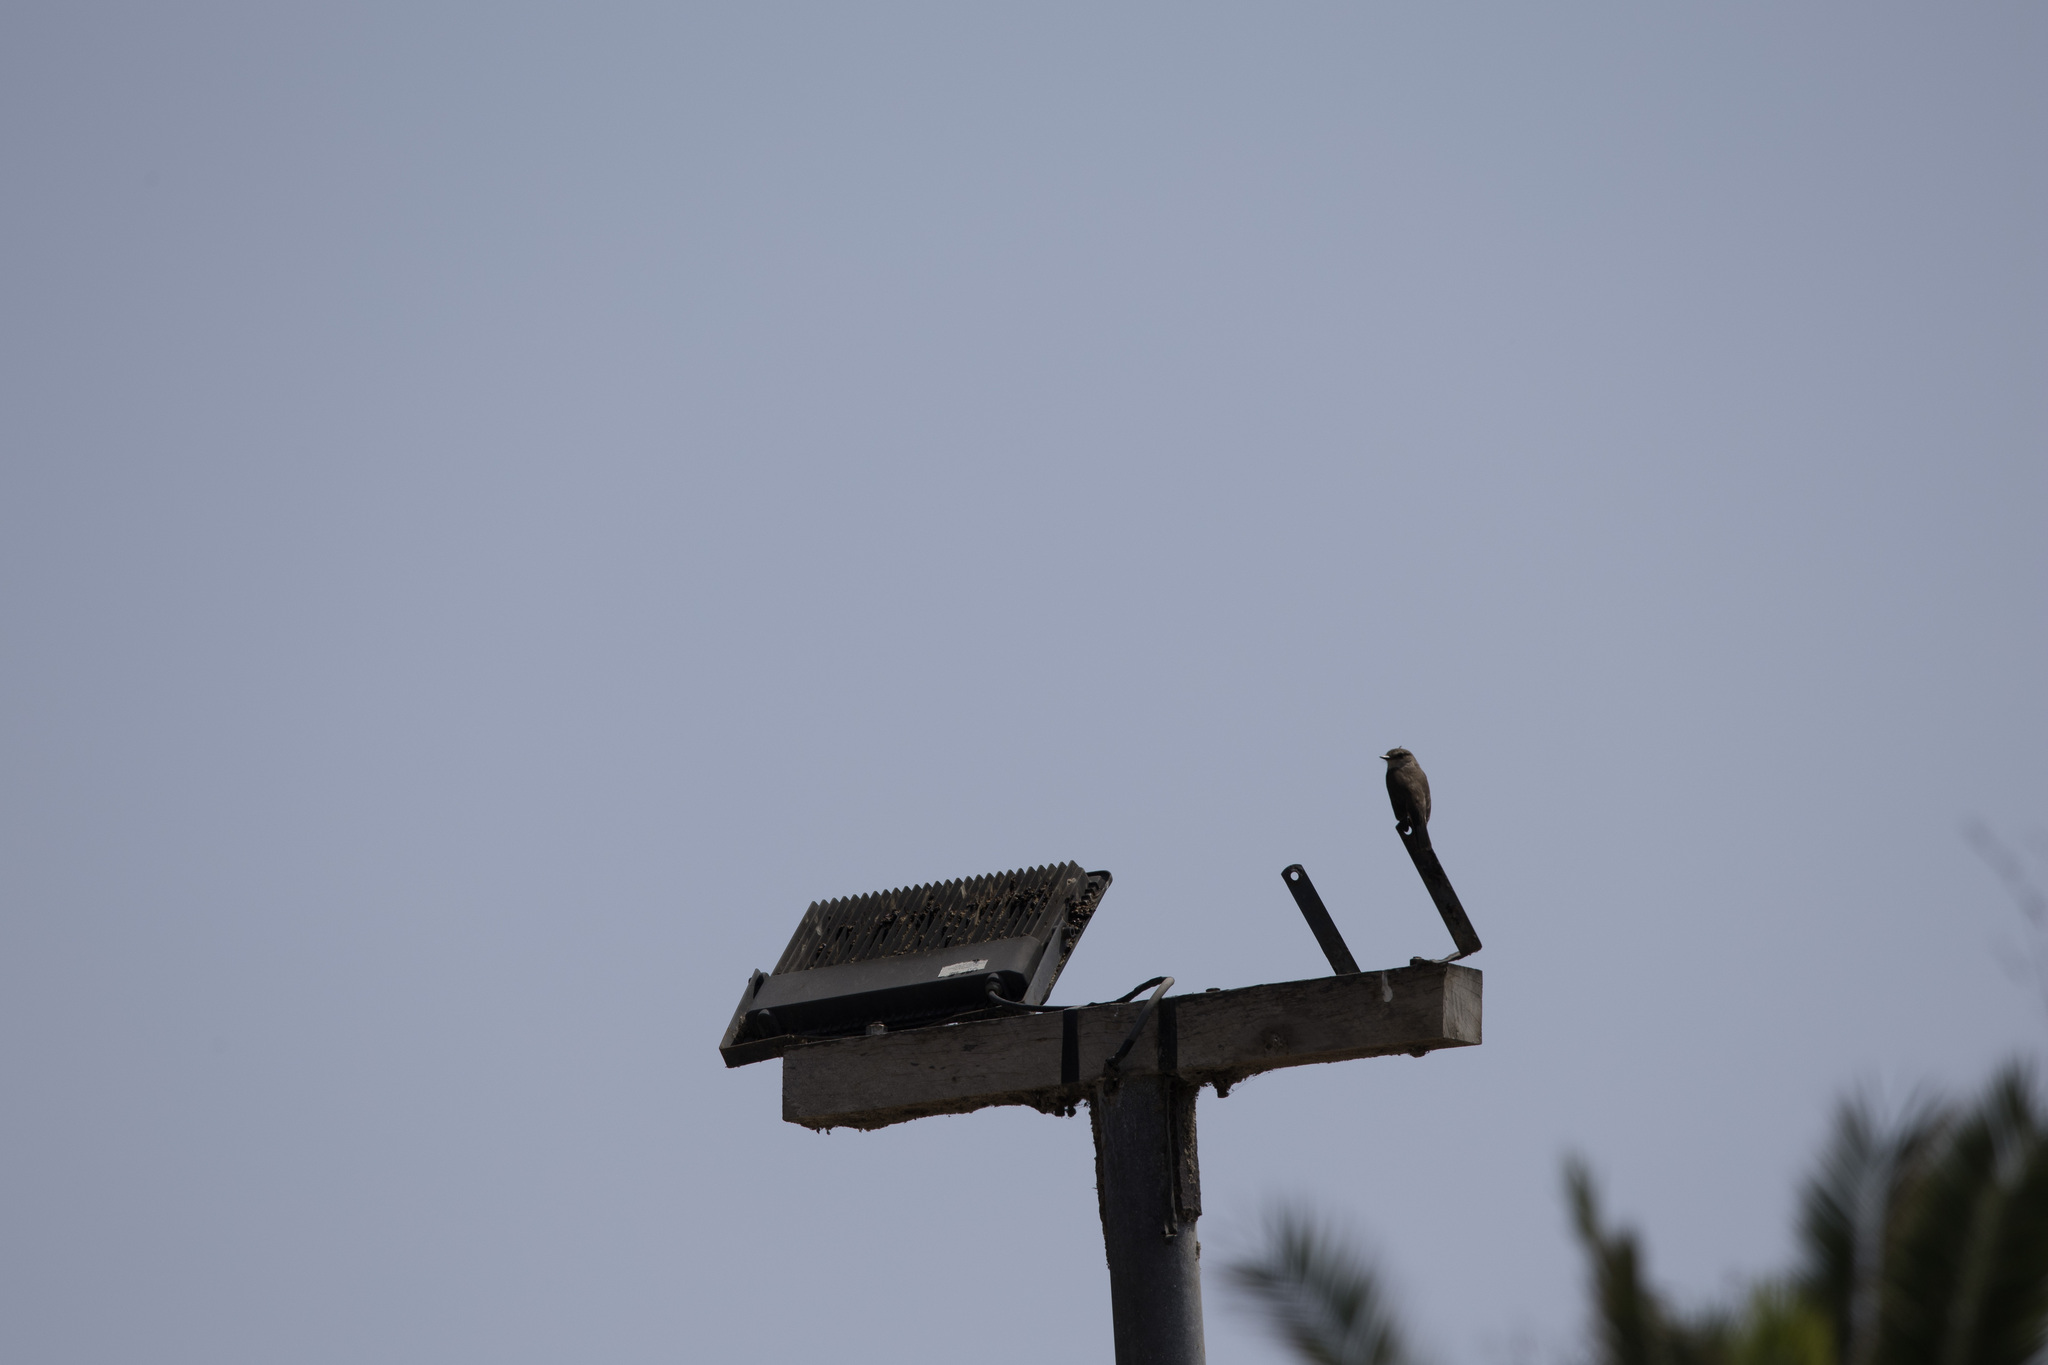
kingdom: Animalia
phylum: Chordata
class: Aves
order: Passeriformes
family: Tyrannidae
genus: Pyrocephalus
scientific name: Pyrocephalus rubinus
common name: Vermilion flycatcher
